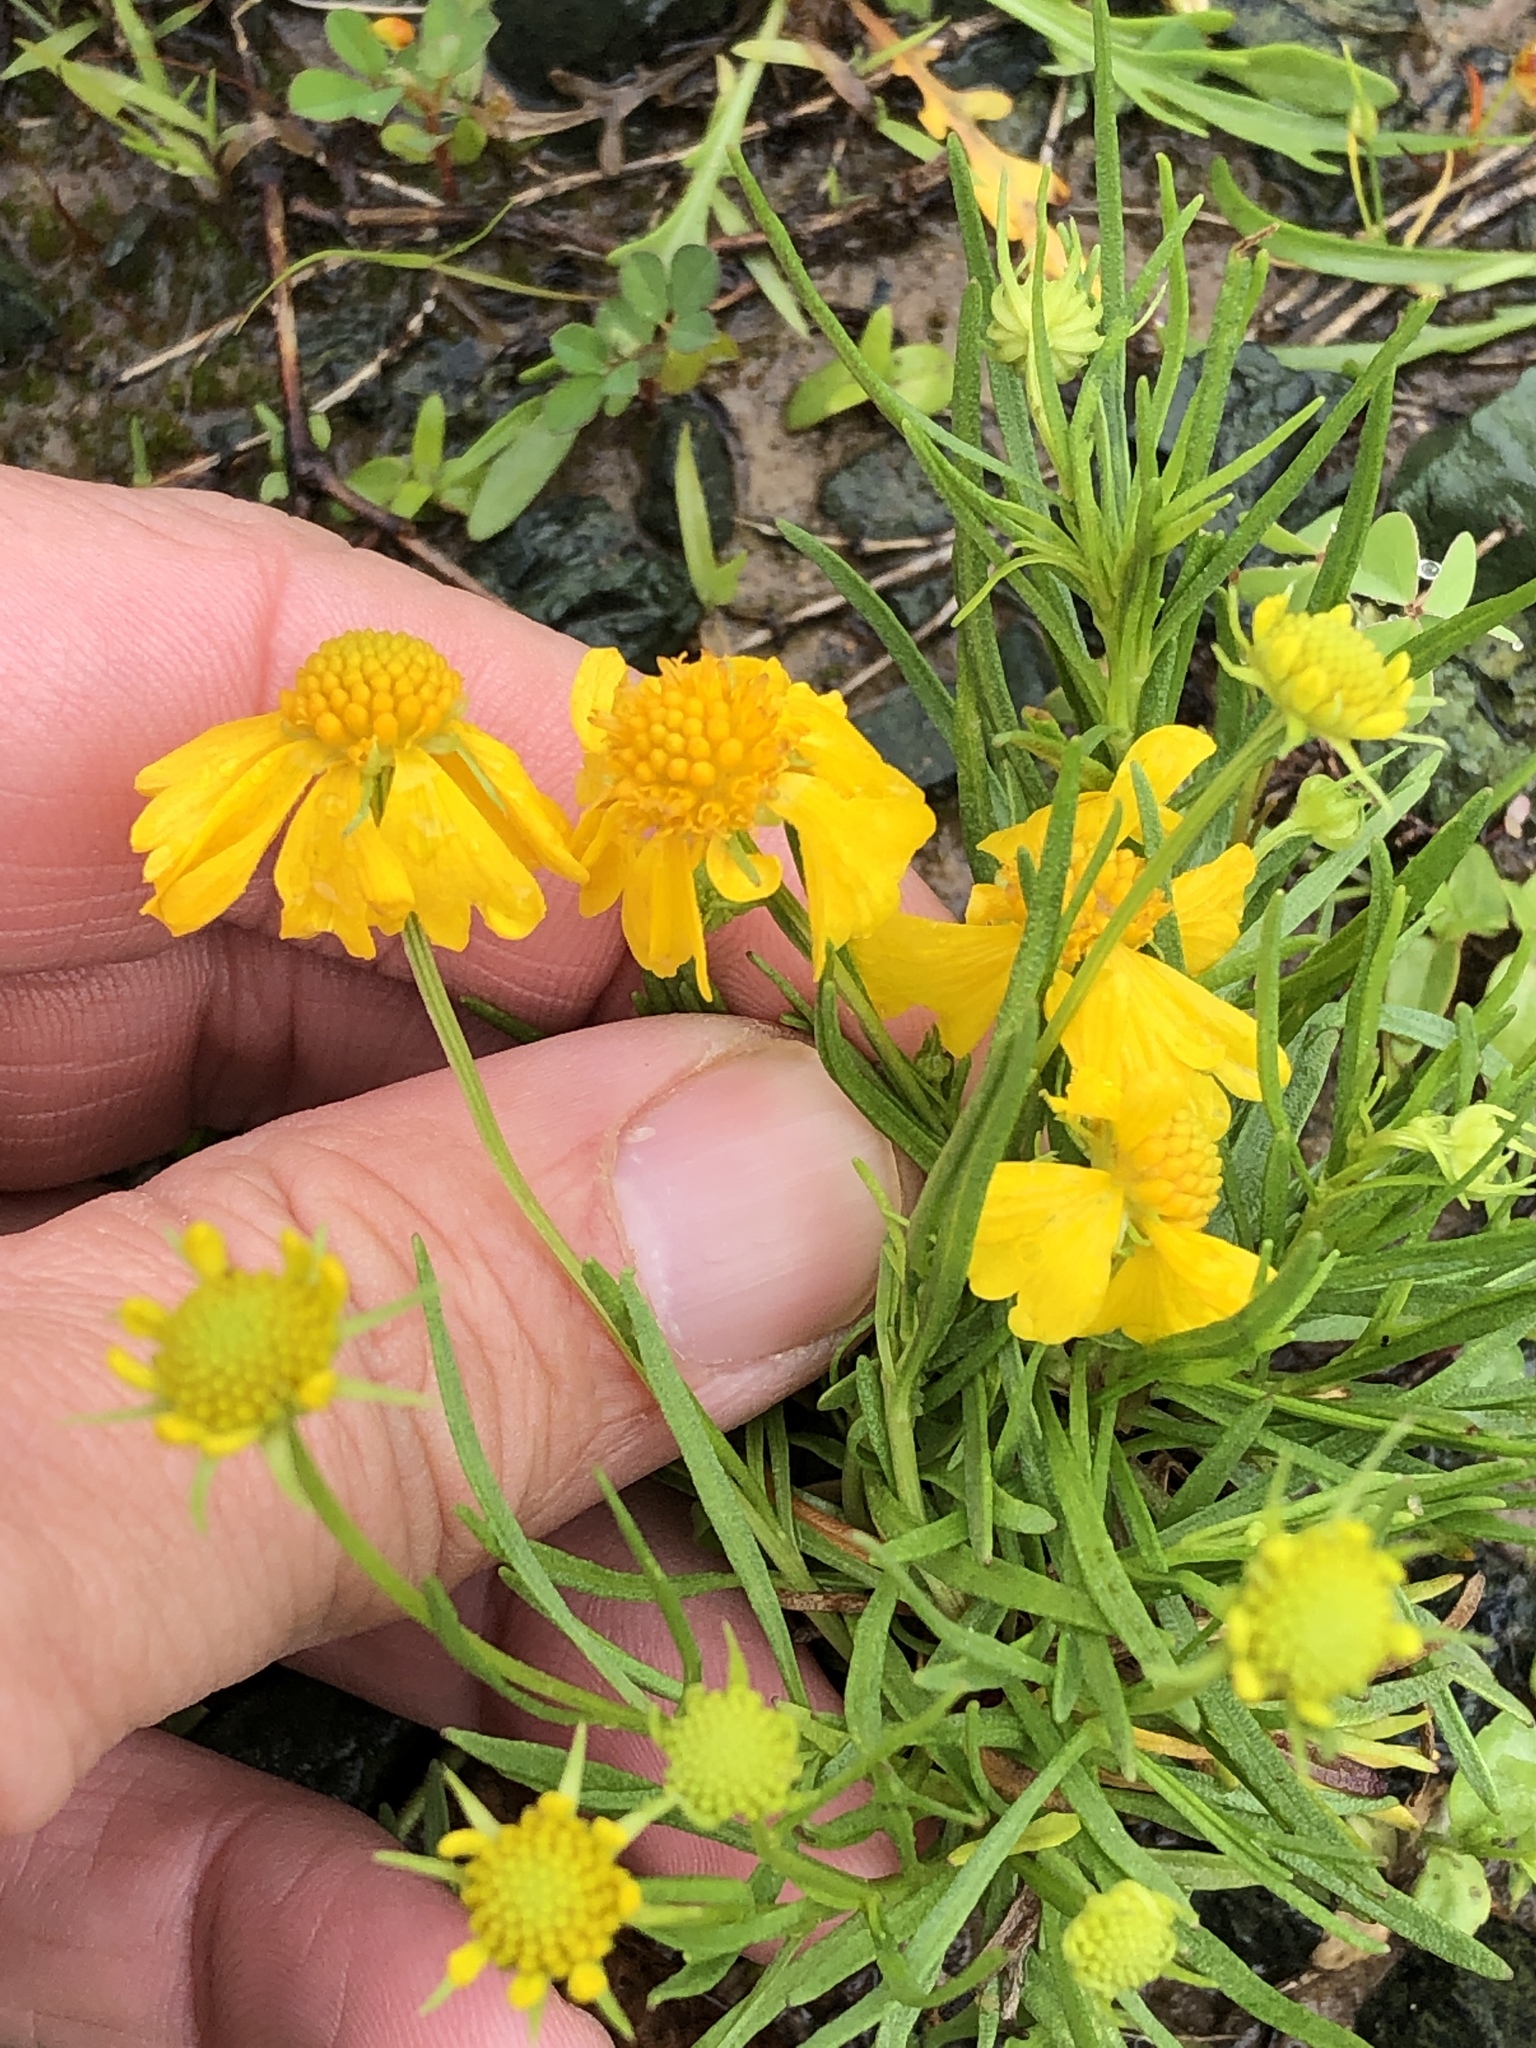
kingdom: Plantae
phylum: Tracheophyta
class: Magnoliopsida
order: Asterales
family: Asteraceae
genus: Helenium
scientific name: Helenium amarum
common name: Bitter sneezeweed
